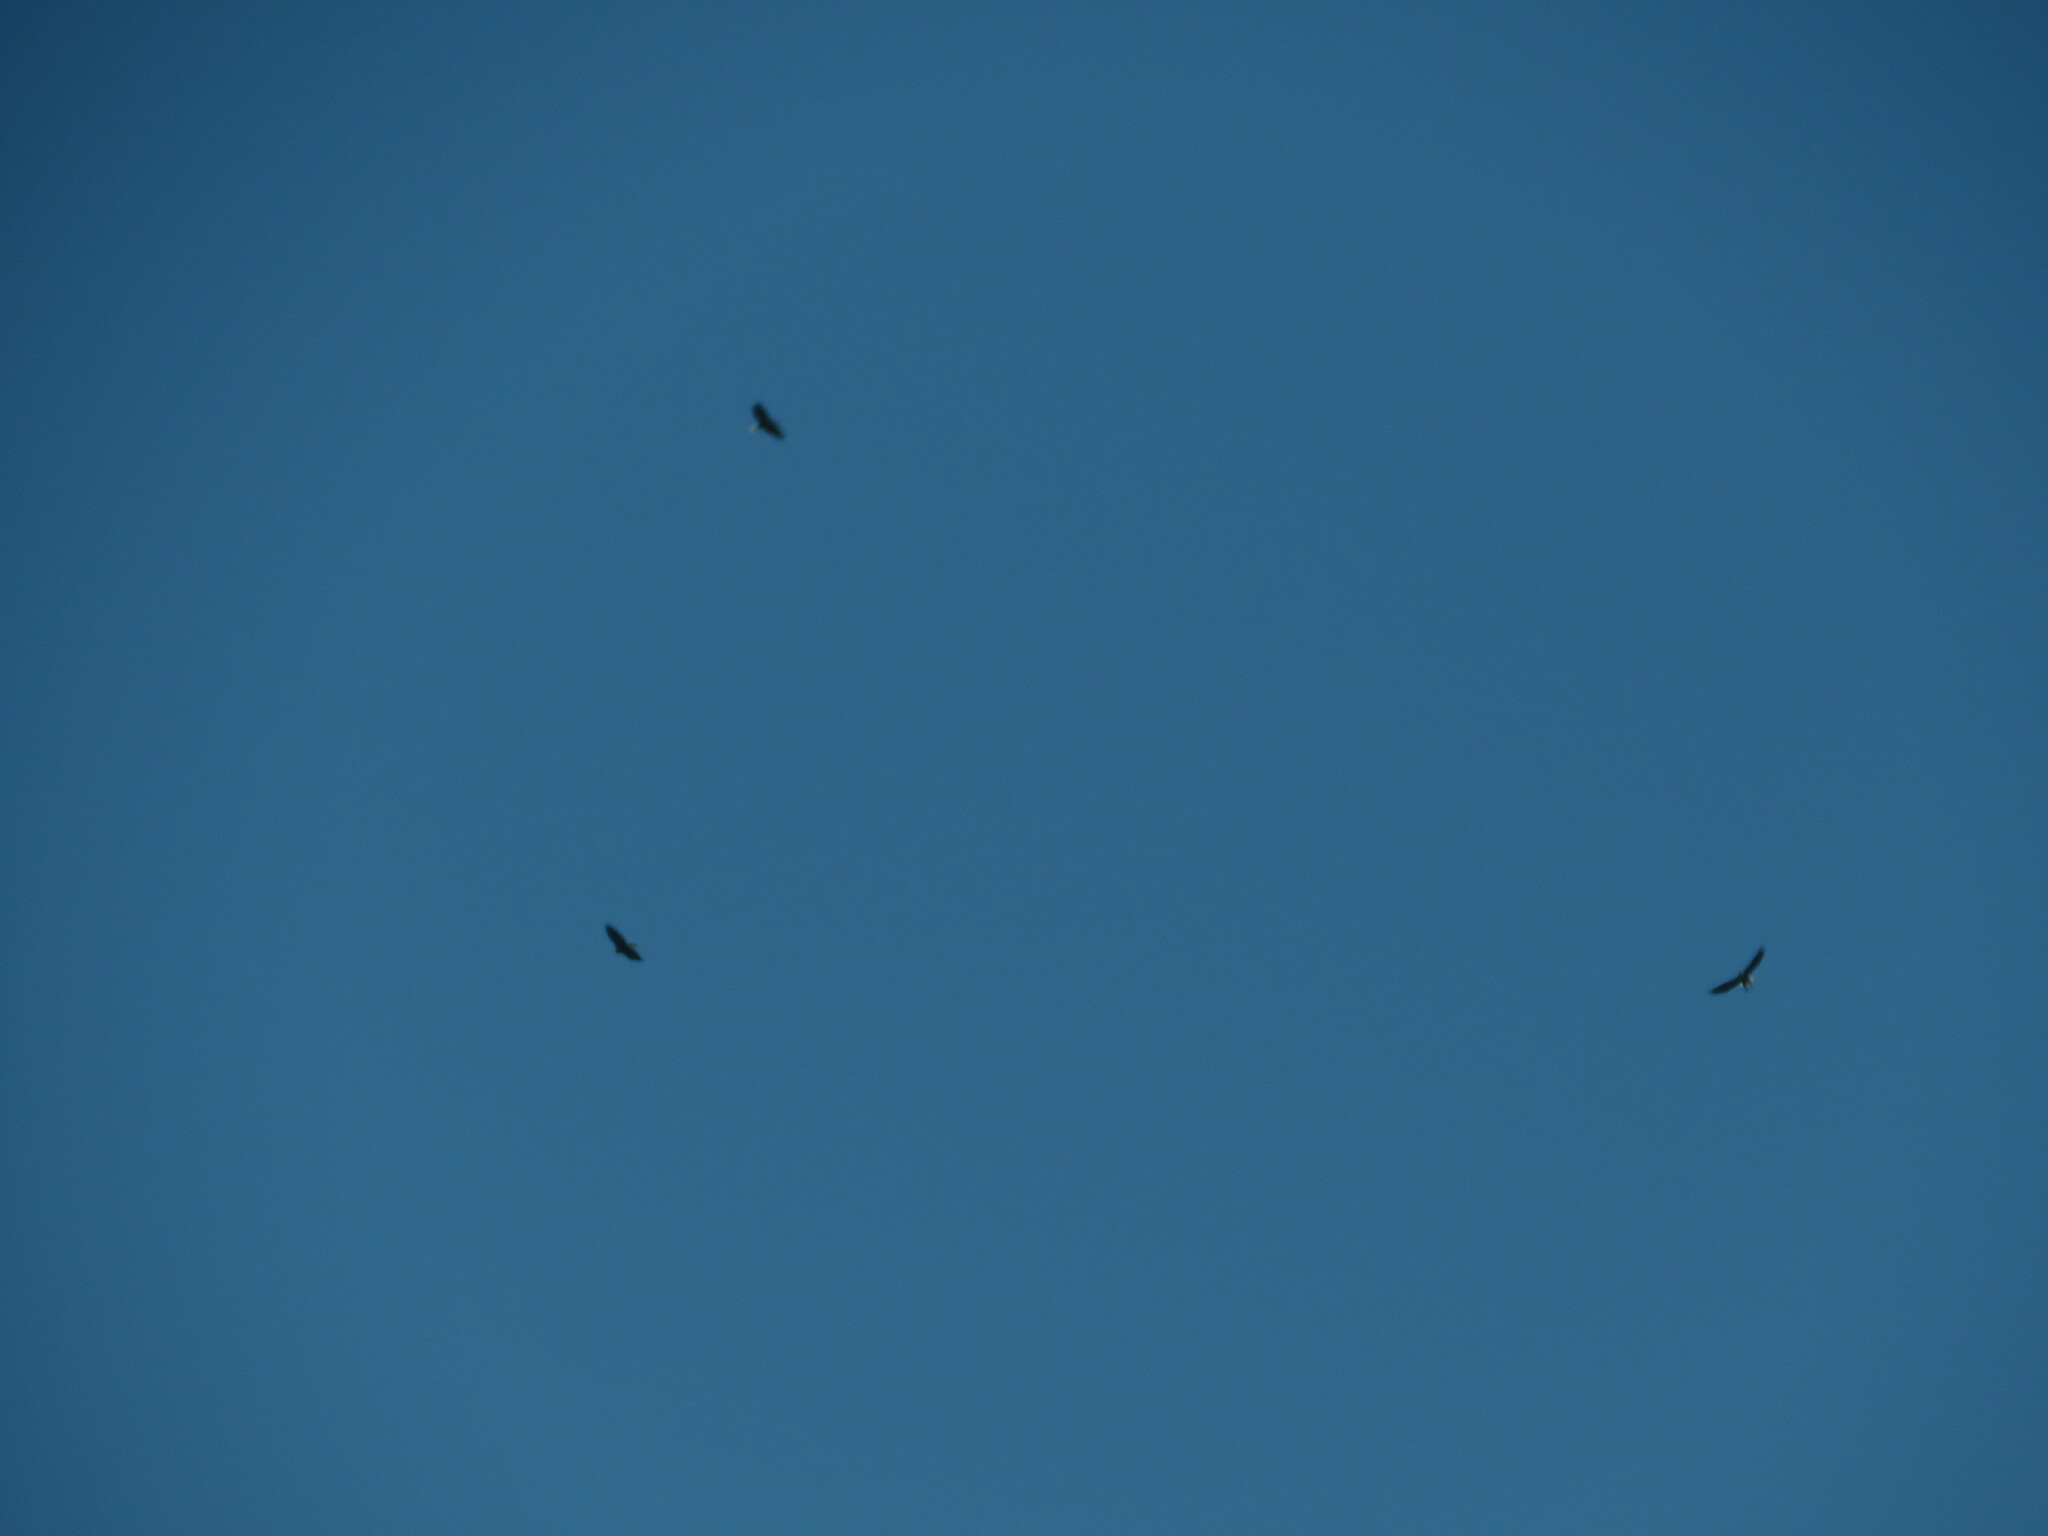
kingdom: Animalia
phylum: Chordata
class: Aves
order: Accipitriformes
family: Accipitridae
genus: Haliaeetus
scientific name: Haliaeetus leucocephalus
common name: Bald eagle
